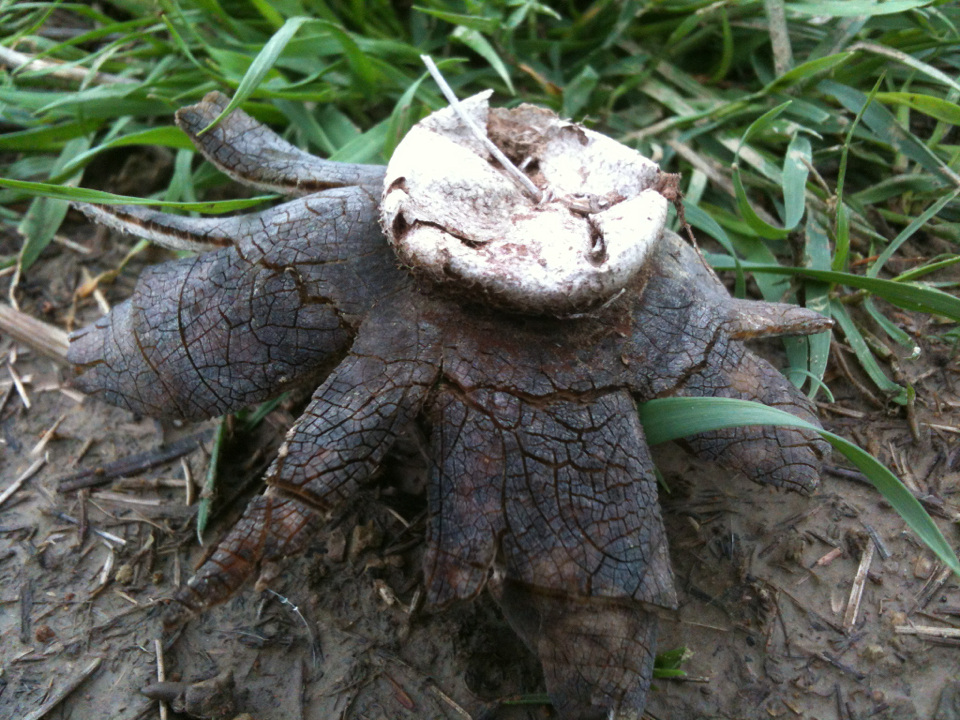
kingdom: Fungi
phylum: Basidiomycota
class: Agaricomycetes
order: Boletales
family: Diplocystidiaceae
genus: Astraeus
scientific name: Astraeus hygrometricus
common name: Barometer earthstar
